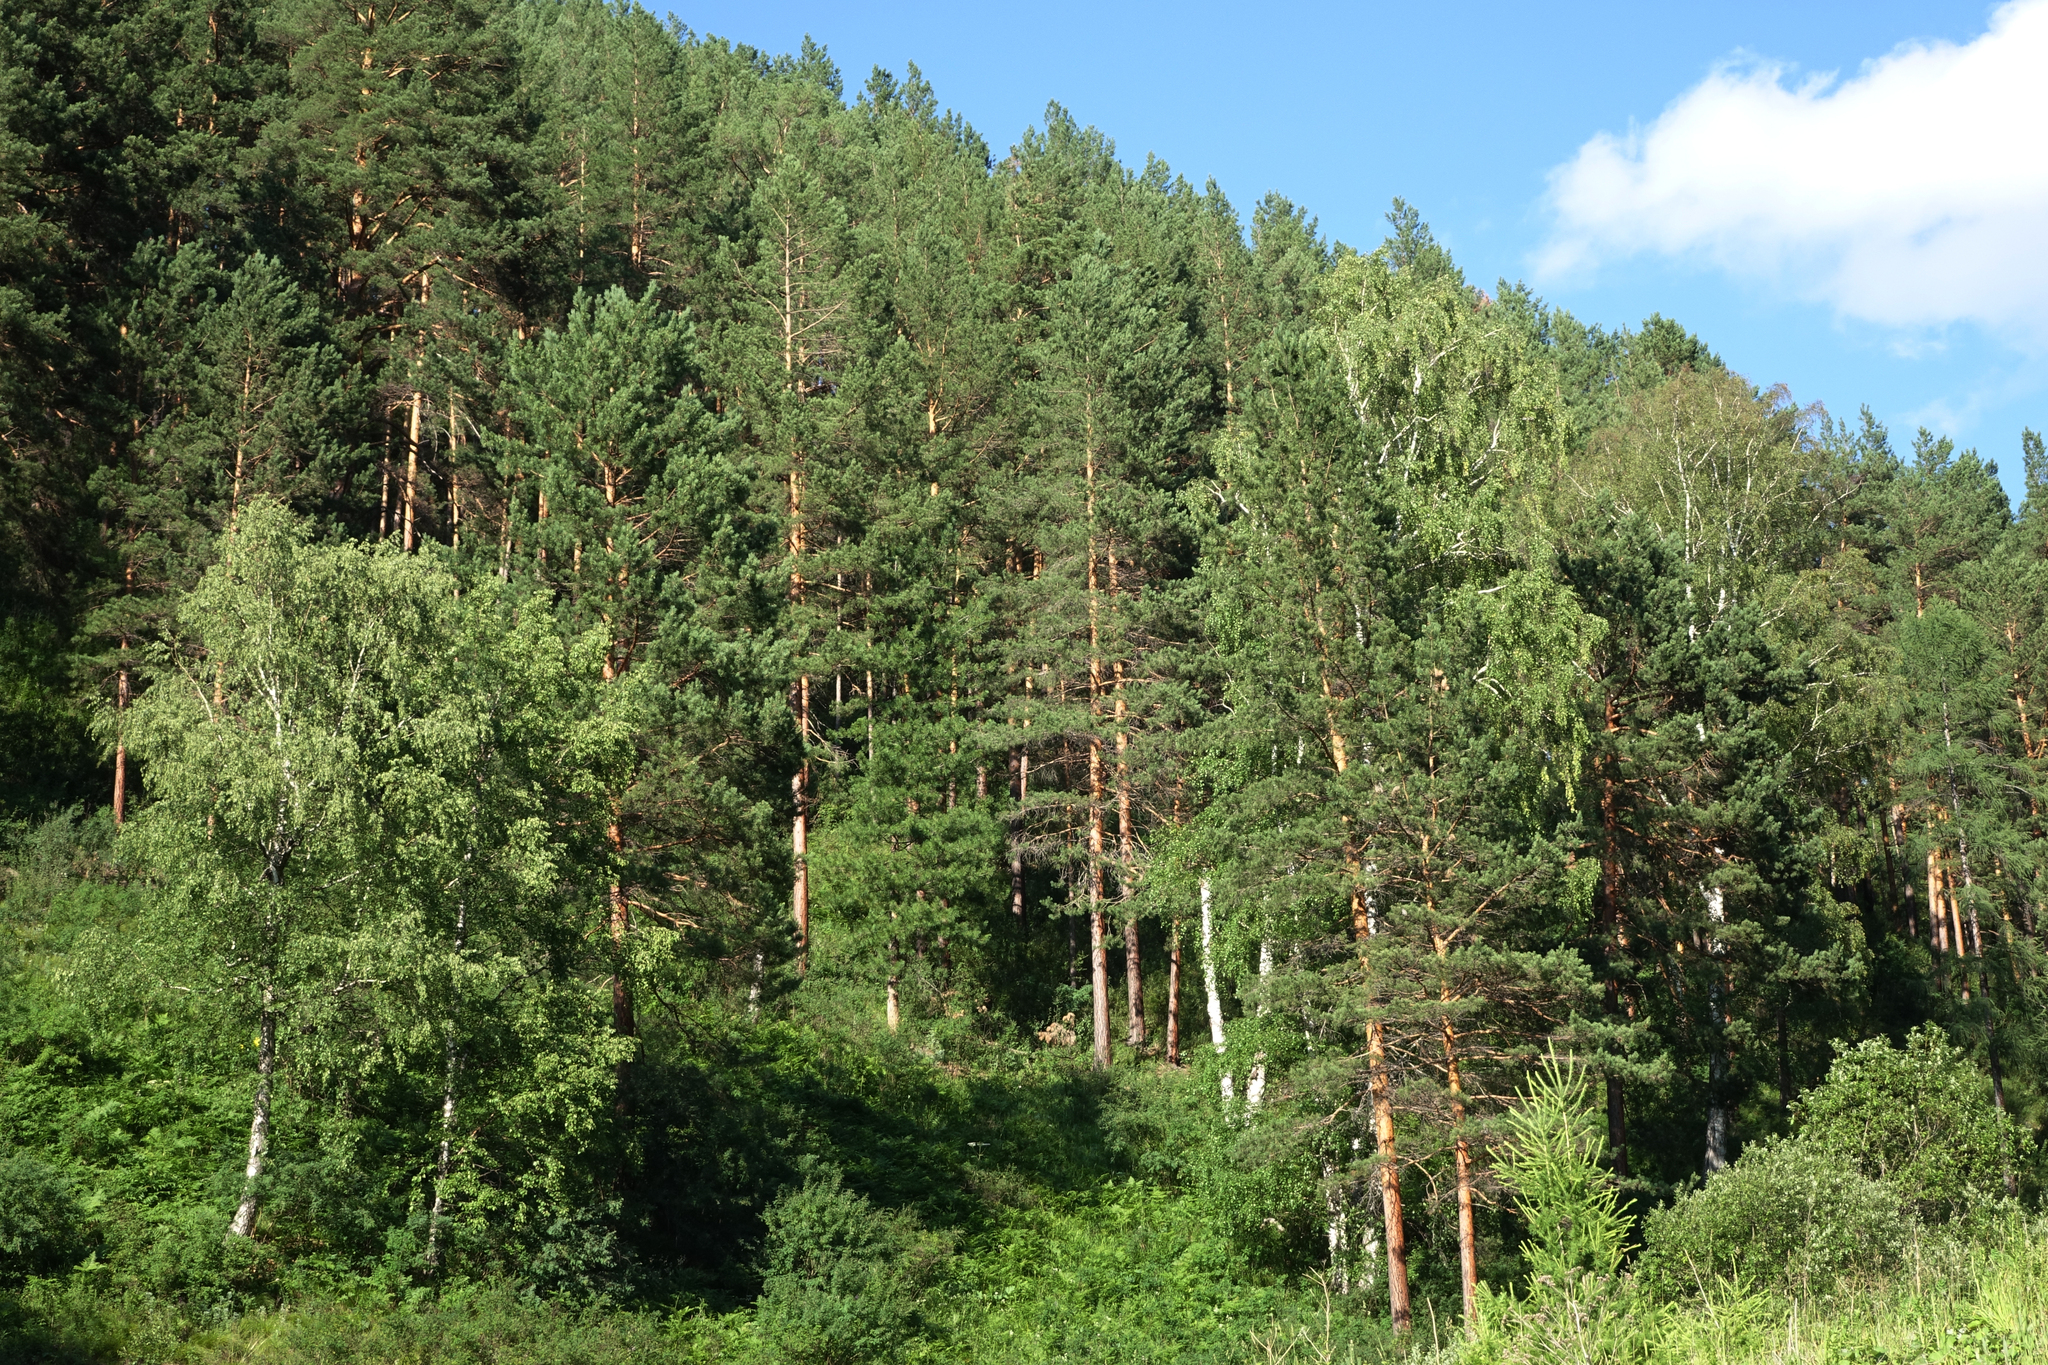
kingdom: Plantae
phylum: Tracheophyta
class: Magnoliopsida
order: Fagales
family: Betulaceae
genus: Betula
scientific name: Betula pendula
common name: Silver birch
